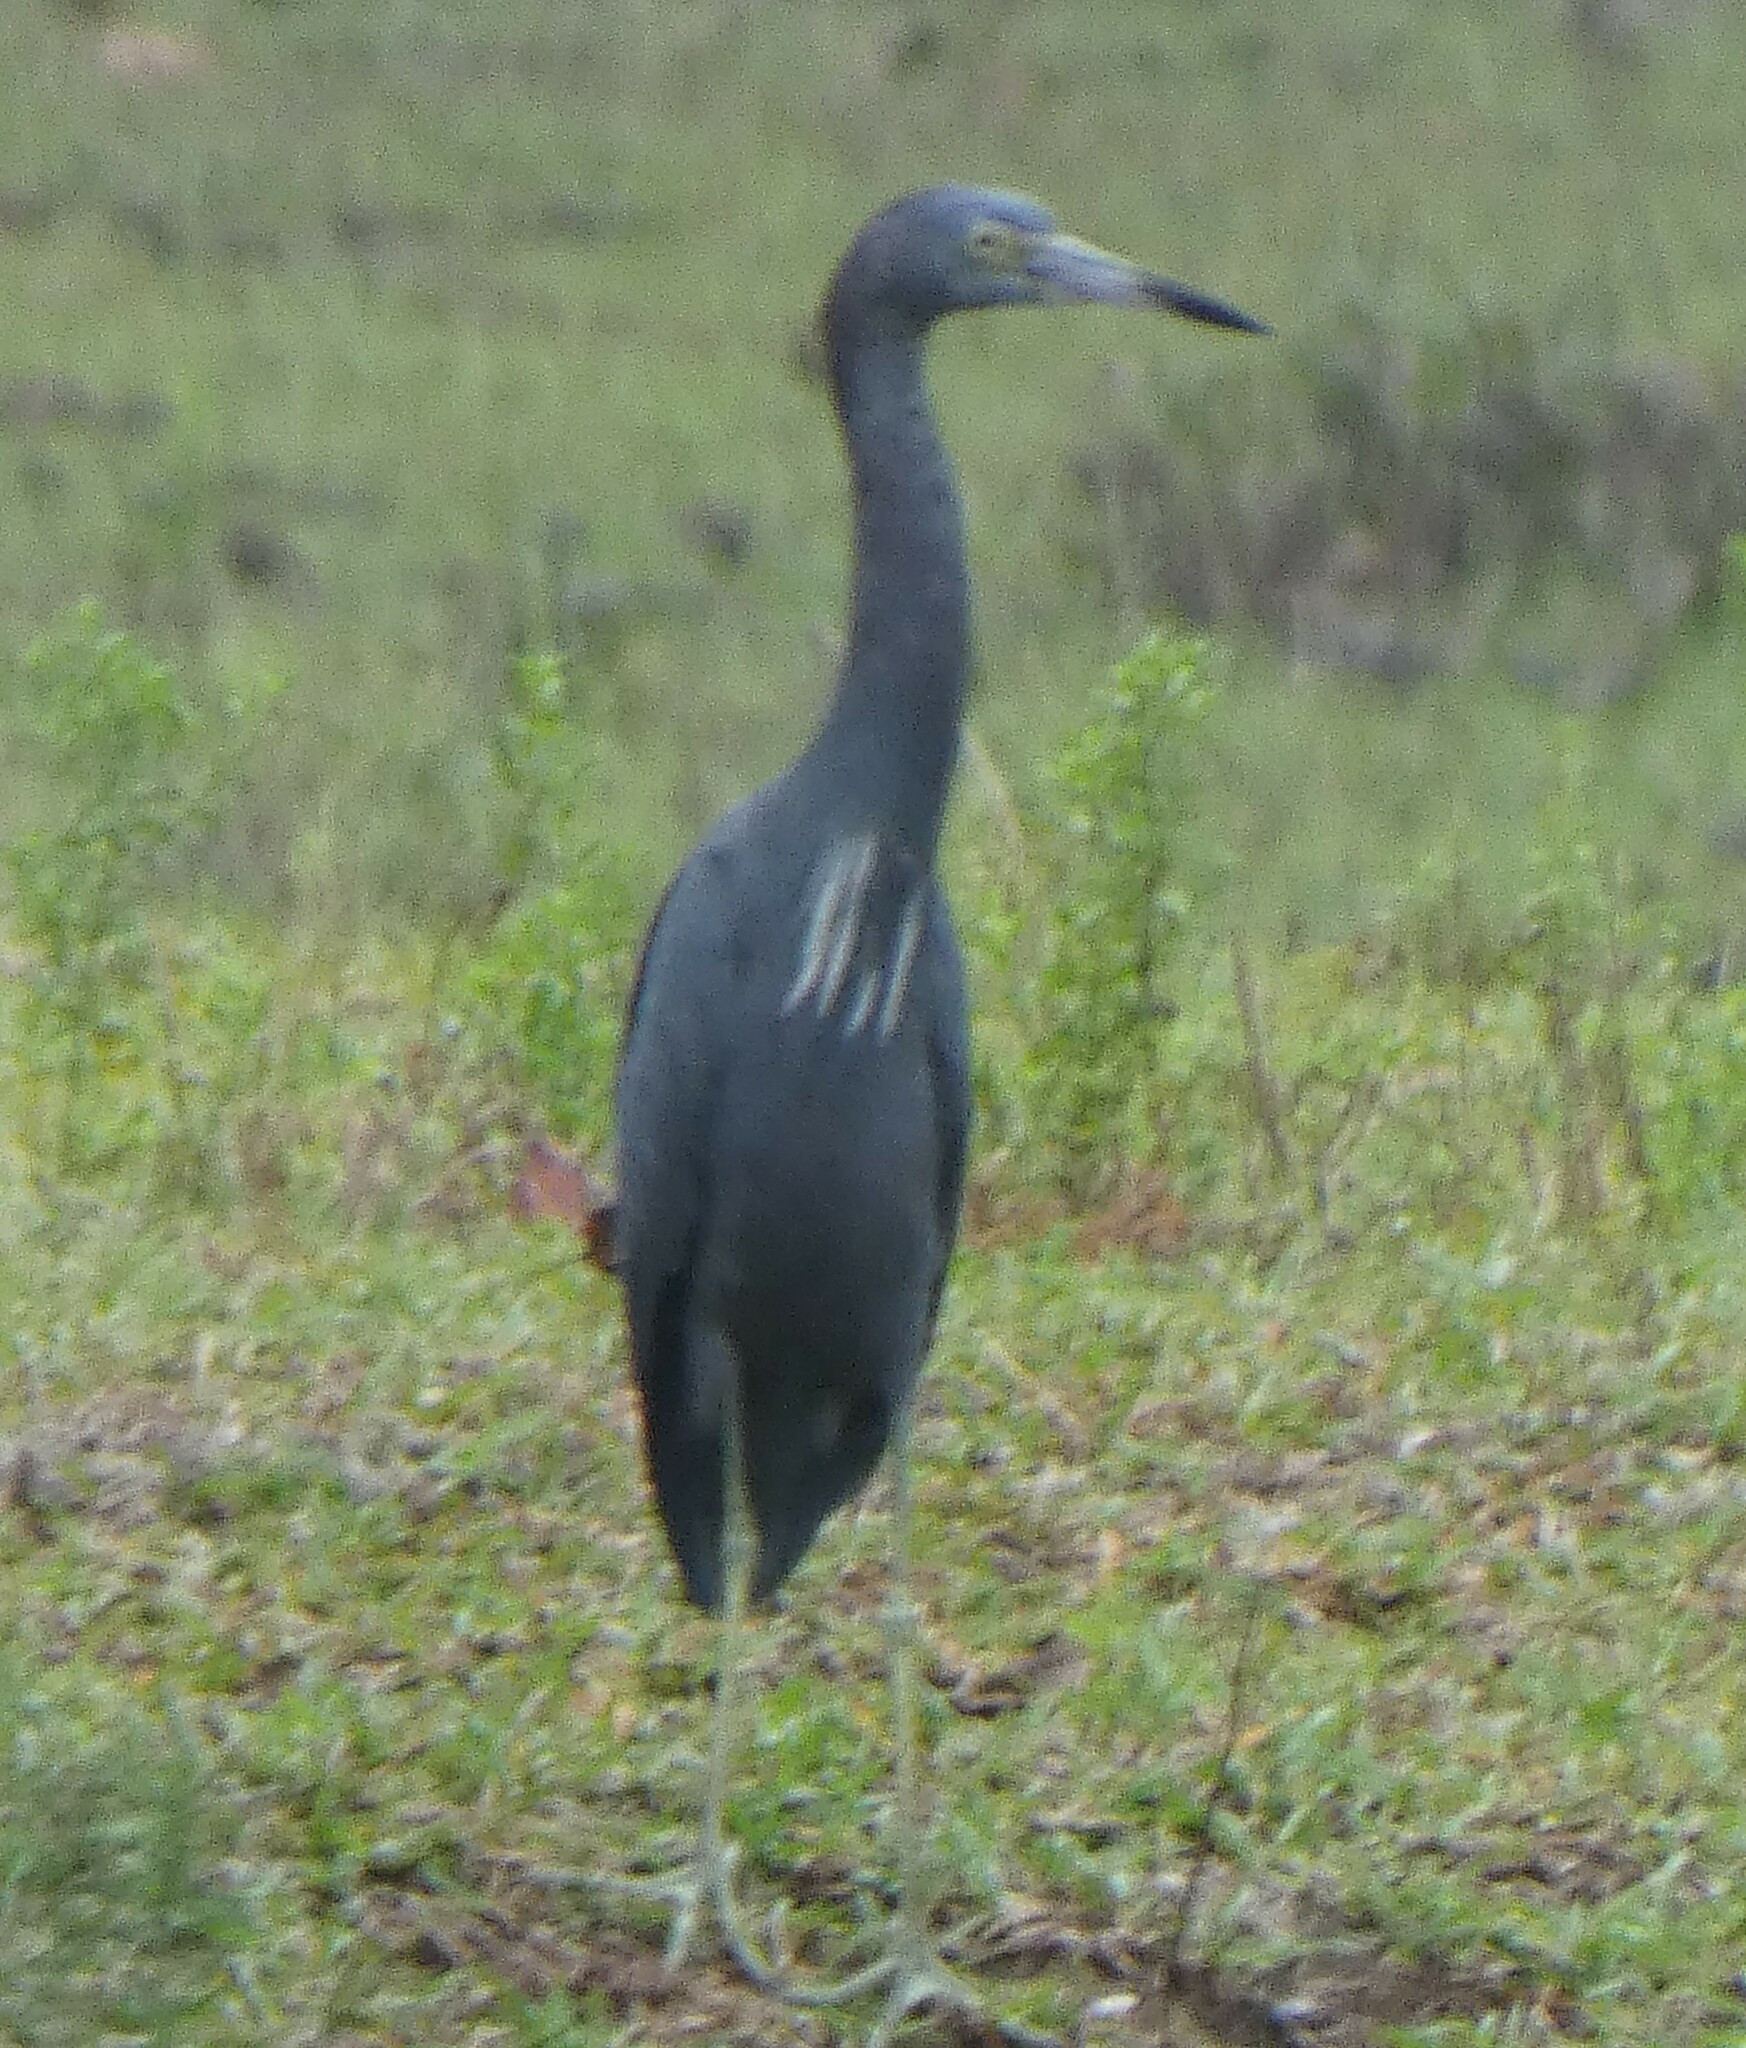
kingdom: Animalia
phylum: Chordata
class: Aves
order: Pelecaniformes
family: Ardeidae
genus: Egretta
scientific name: Egretta caerulea
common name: Little blue heron
